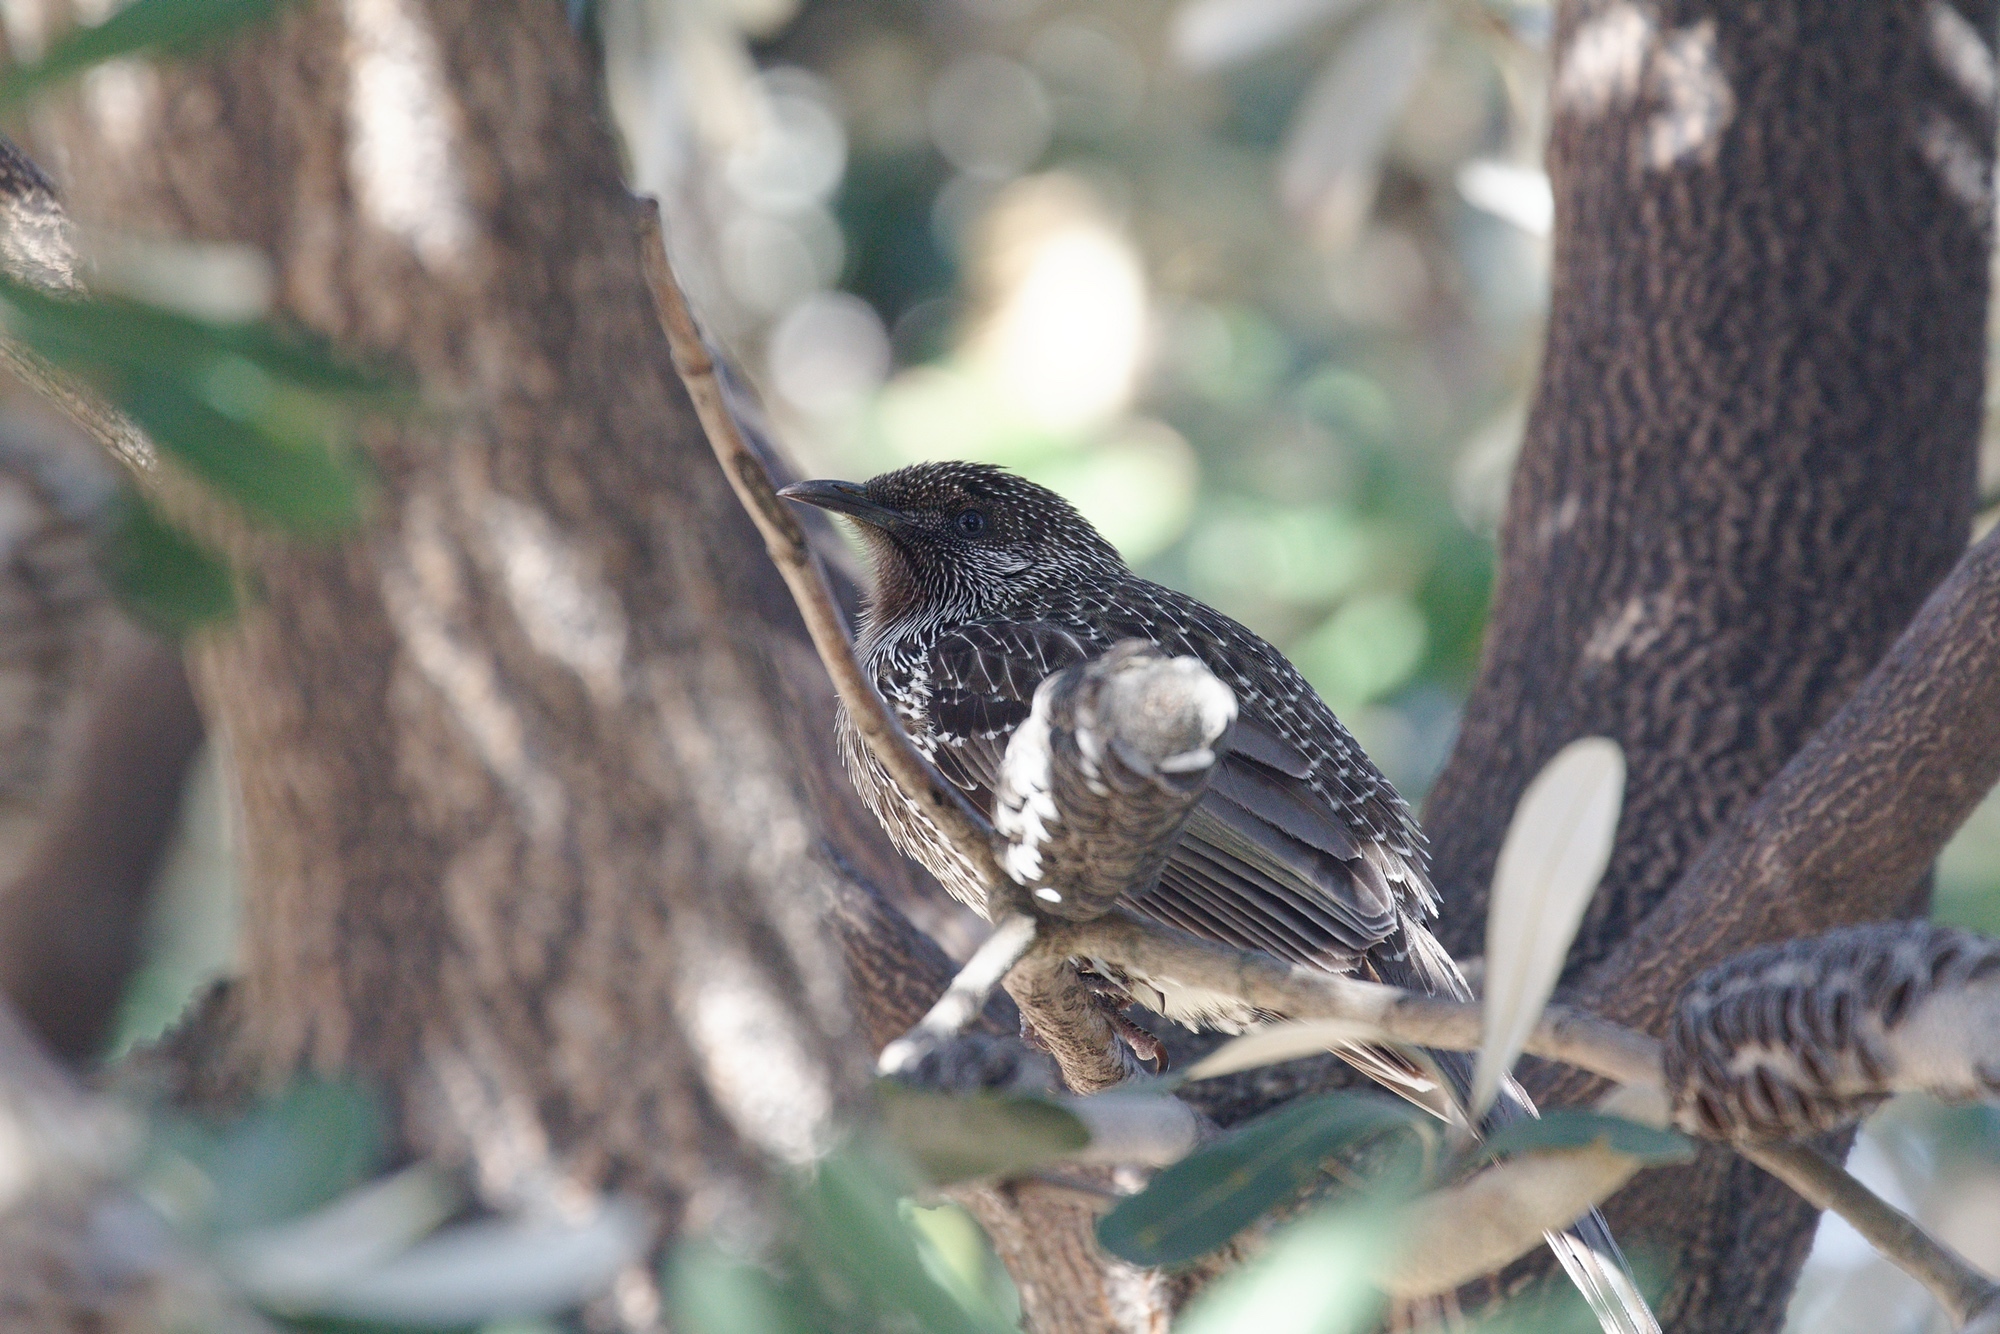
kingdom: Animalia
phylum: Chordata
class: Aves
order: Passeriformes
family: Meliphagidae
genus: Anthochaera
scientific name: Anthochaera chrysoptera
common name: Little wattlebird
